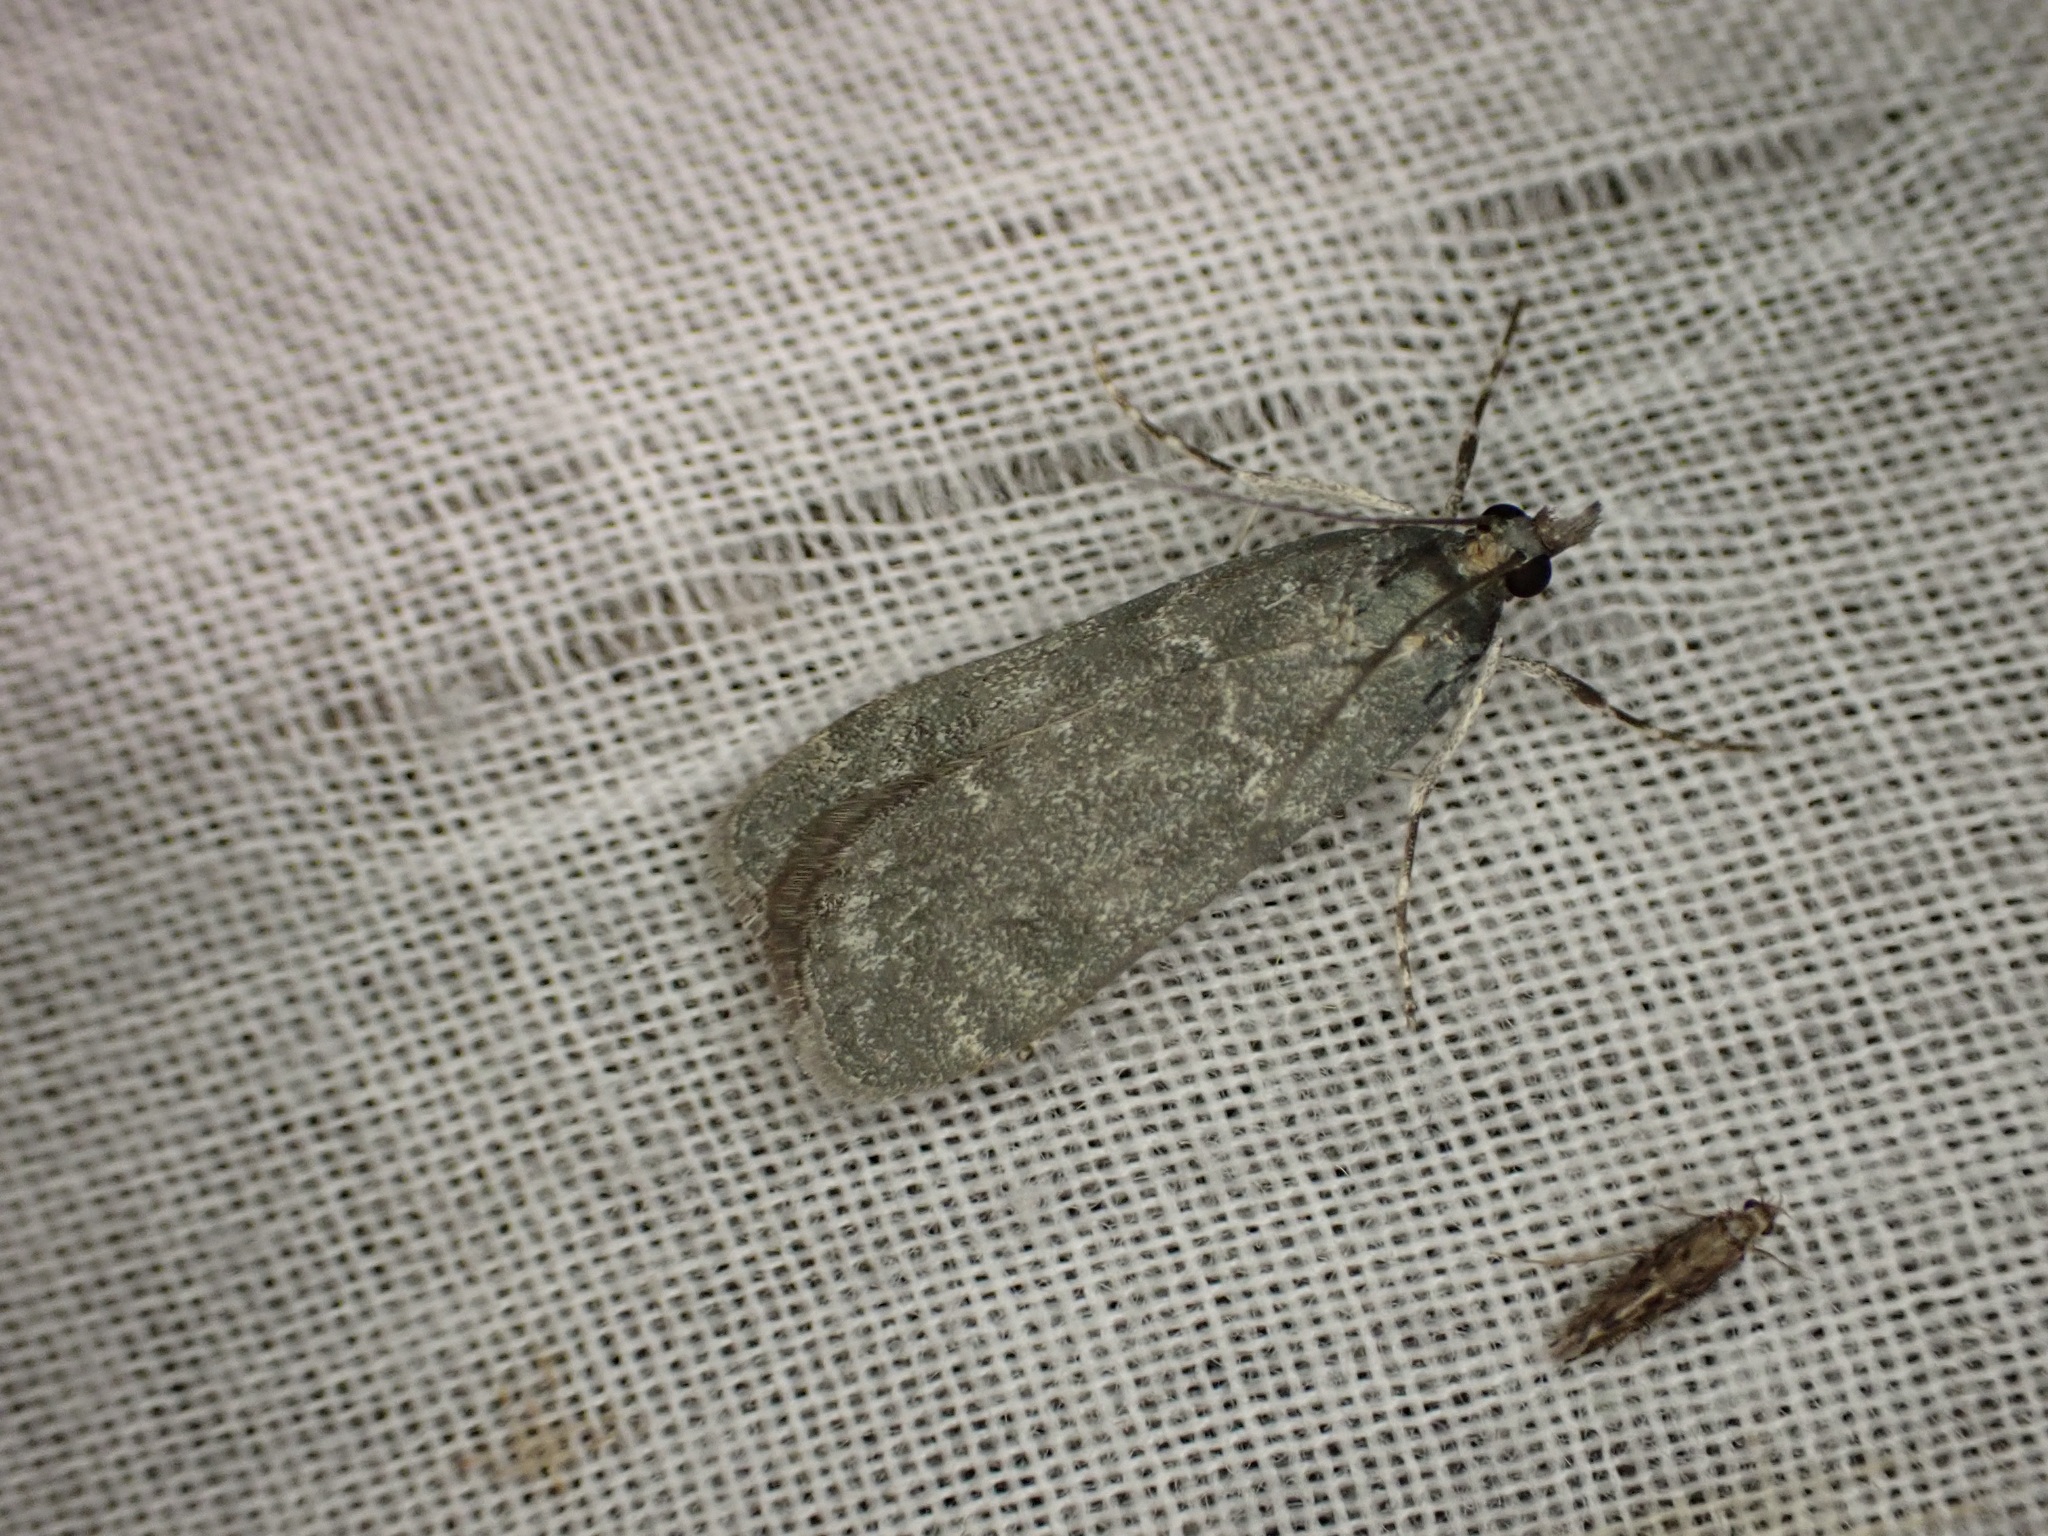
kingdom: Animalia
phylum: Arthropoda
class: Insecta
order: Lepidoptera
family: Crambidae
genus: Eudonia
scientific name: Eudonia cataxesta
